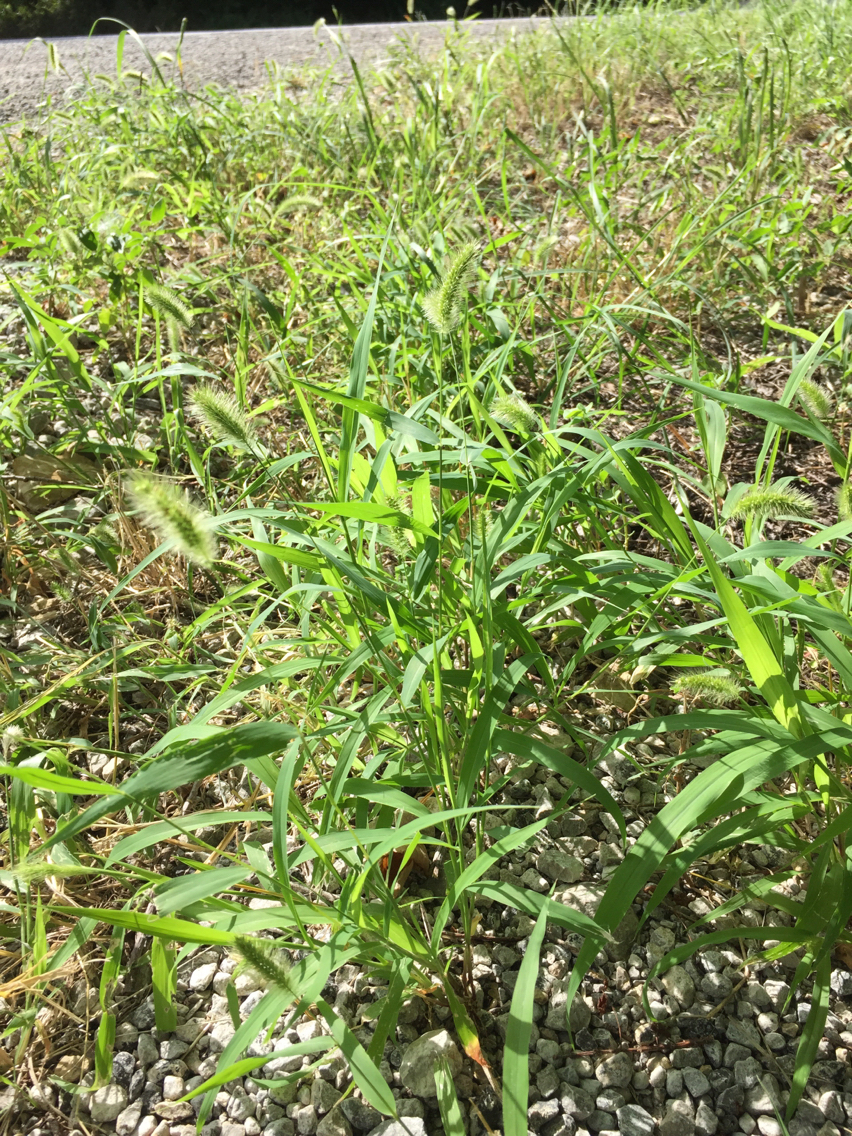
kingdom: Plantae
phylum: Tracheophyta
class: Liliopsida
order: Poales
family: Poaceae
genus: Setaria
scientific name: Setaria viridis
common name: Green bristlegrass
